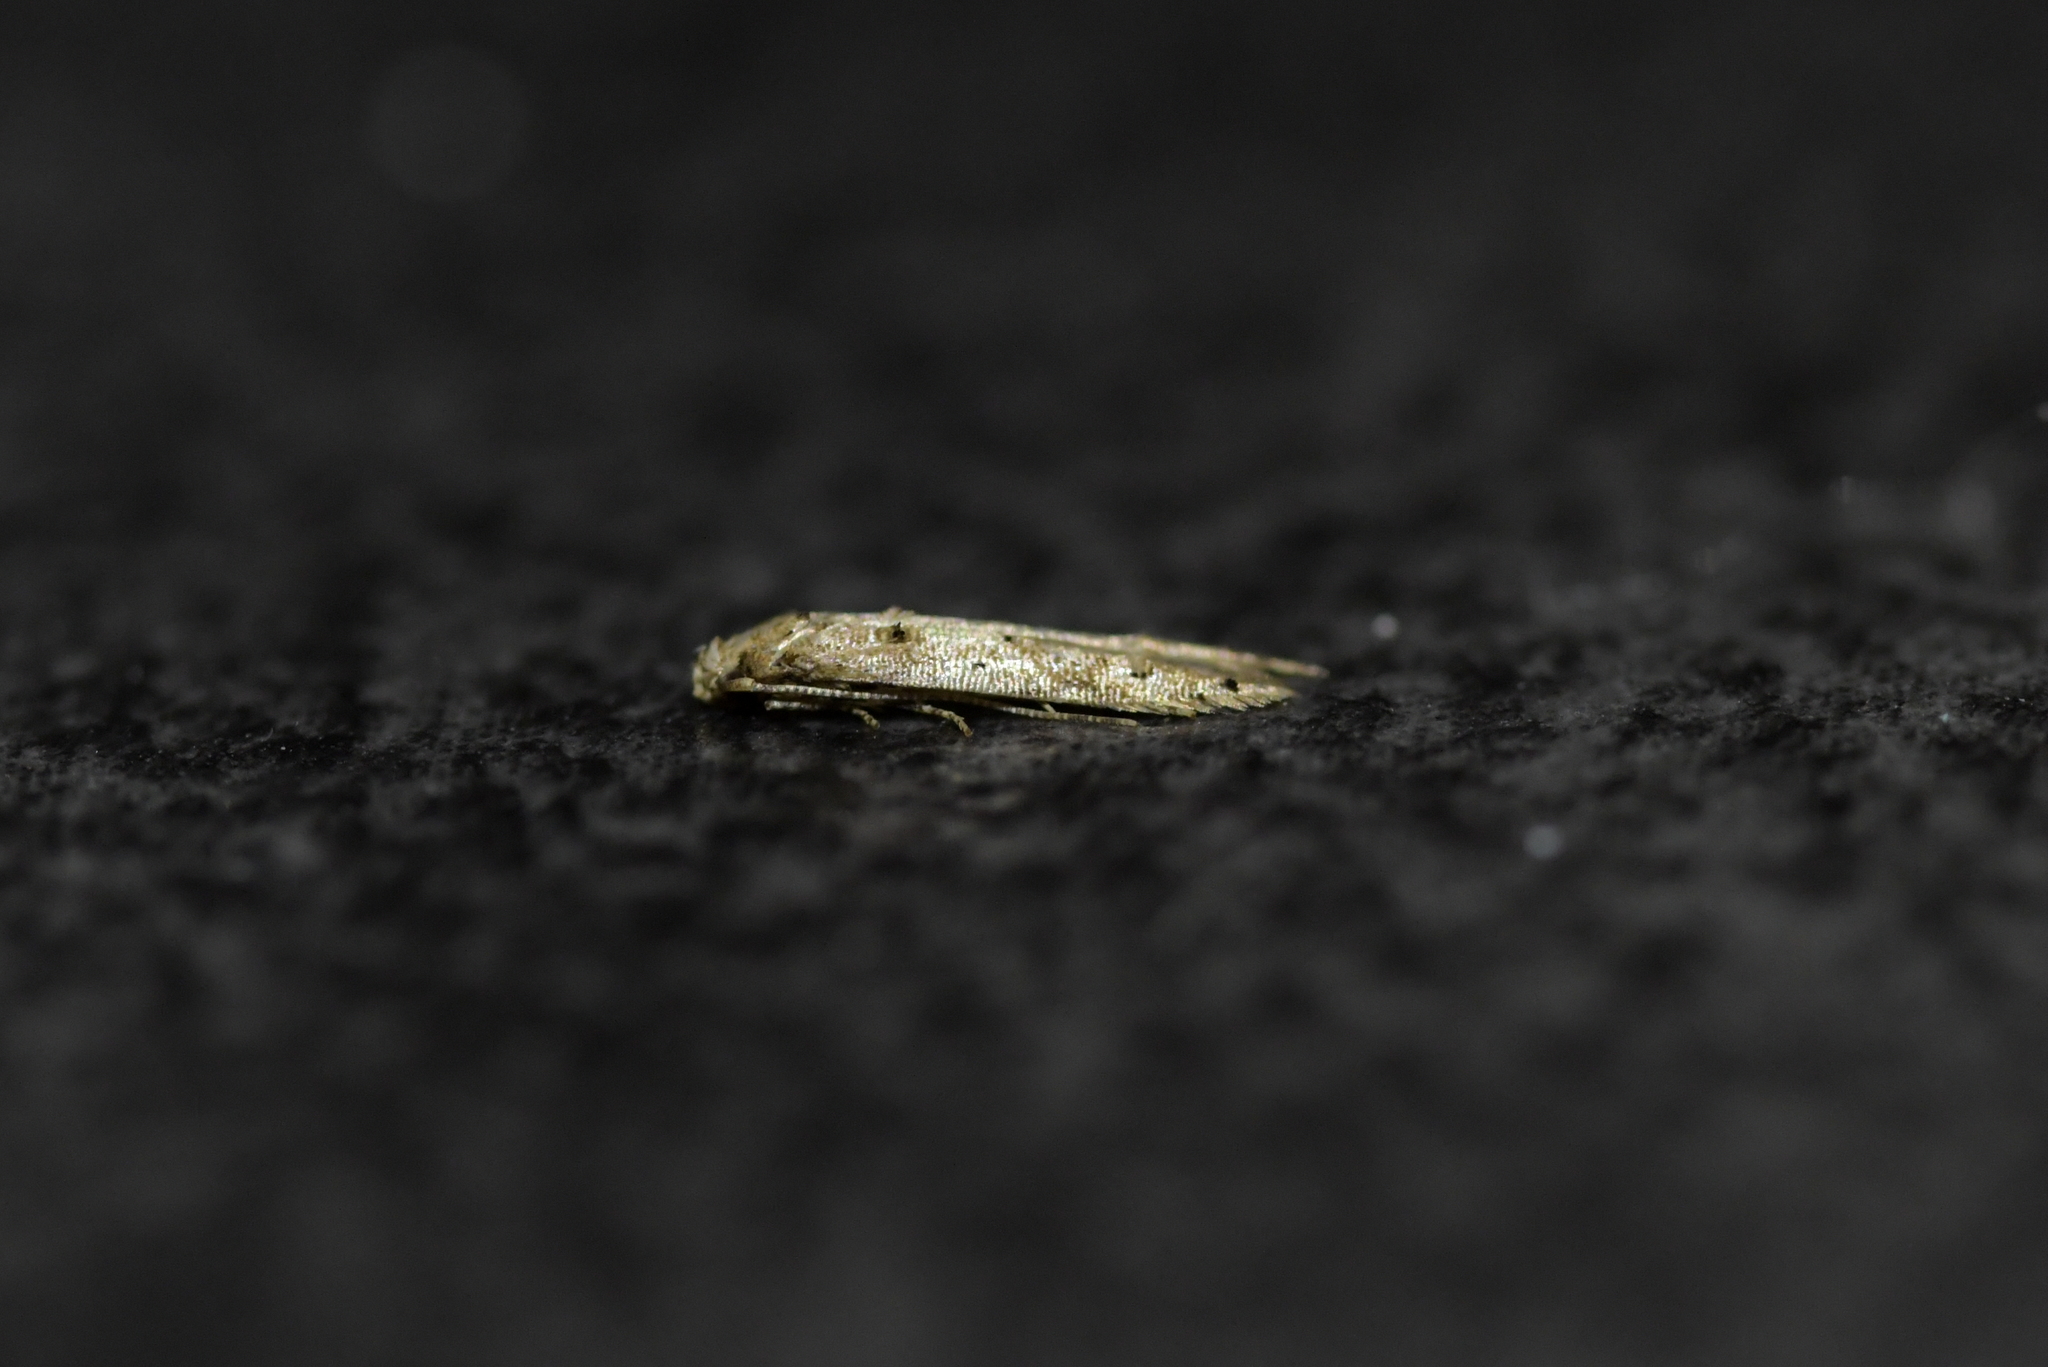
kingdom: Animalia
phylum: Arthropoda
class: Insecta
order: Lepidoptera
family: Elachistidae
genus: Microcolona
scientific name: Microcolona limodes
